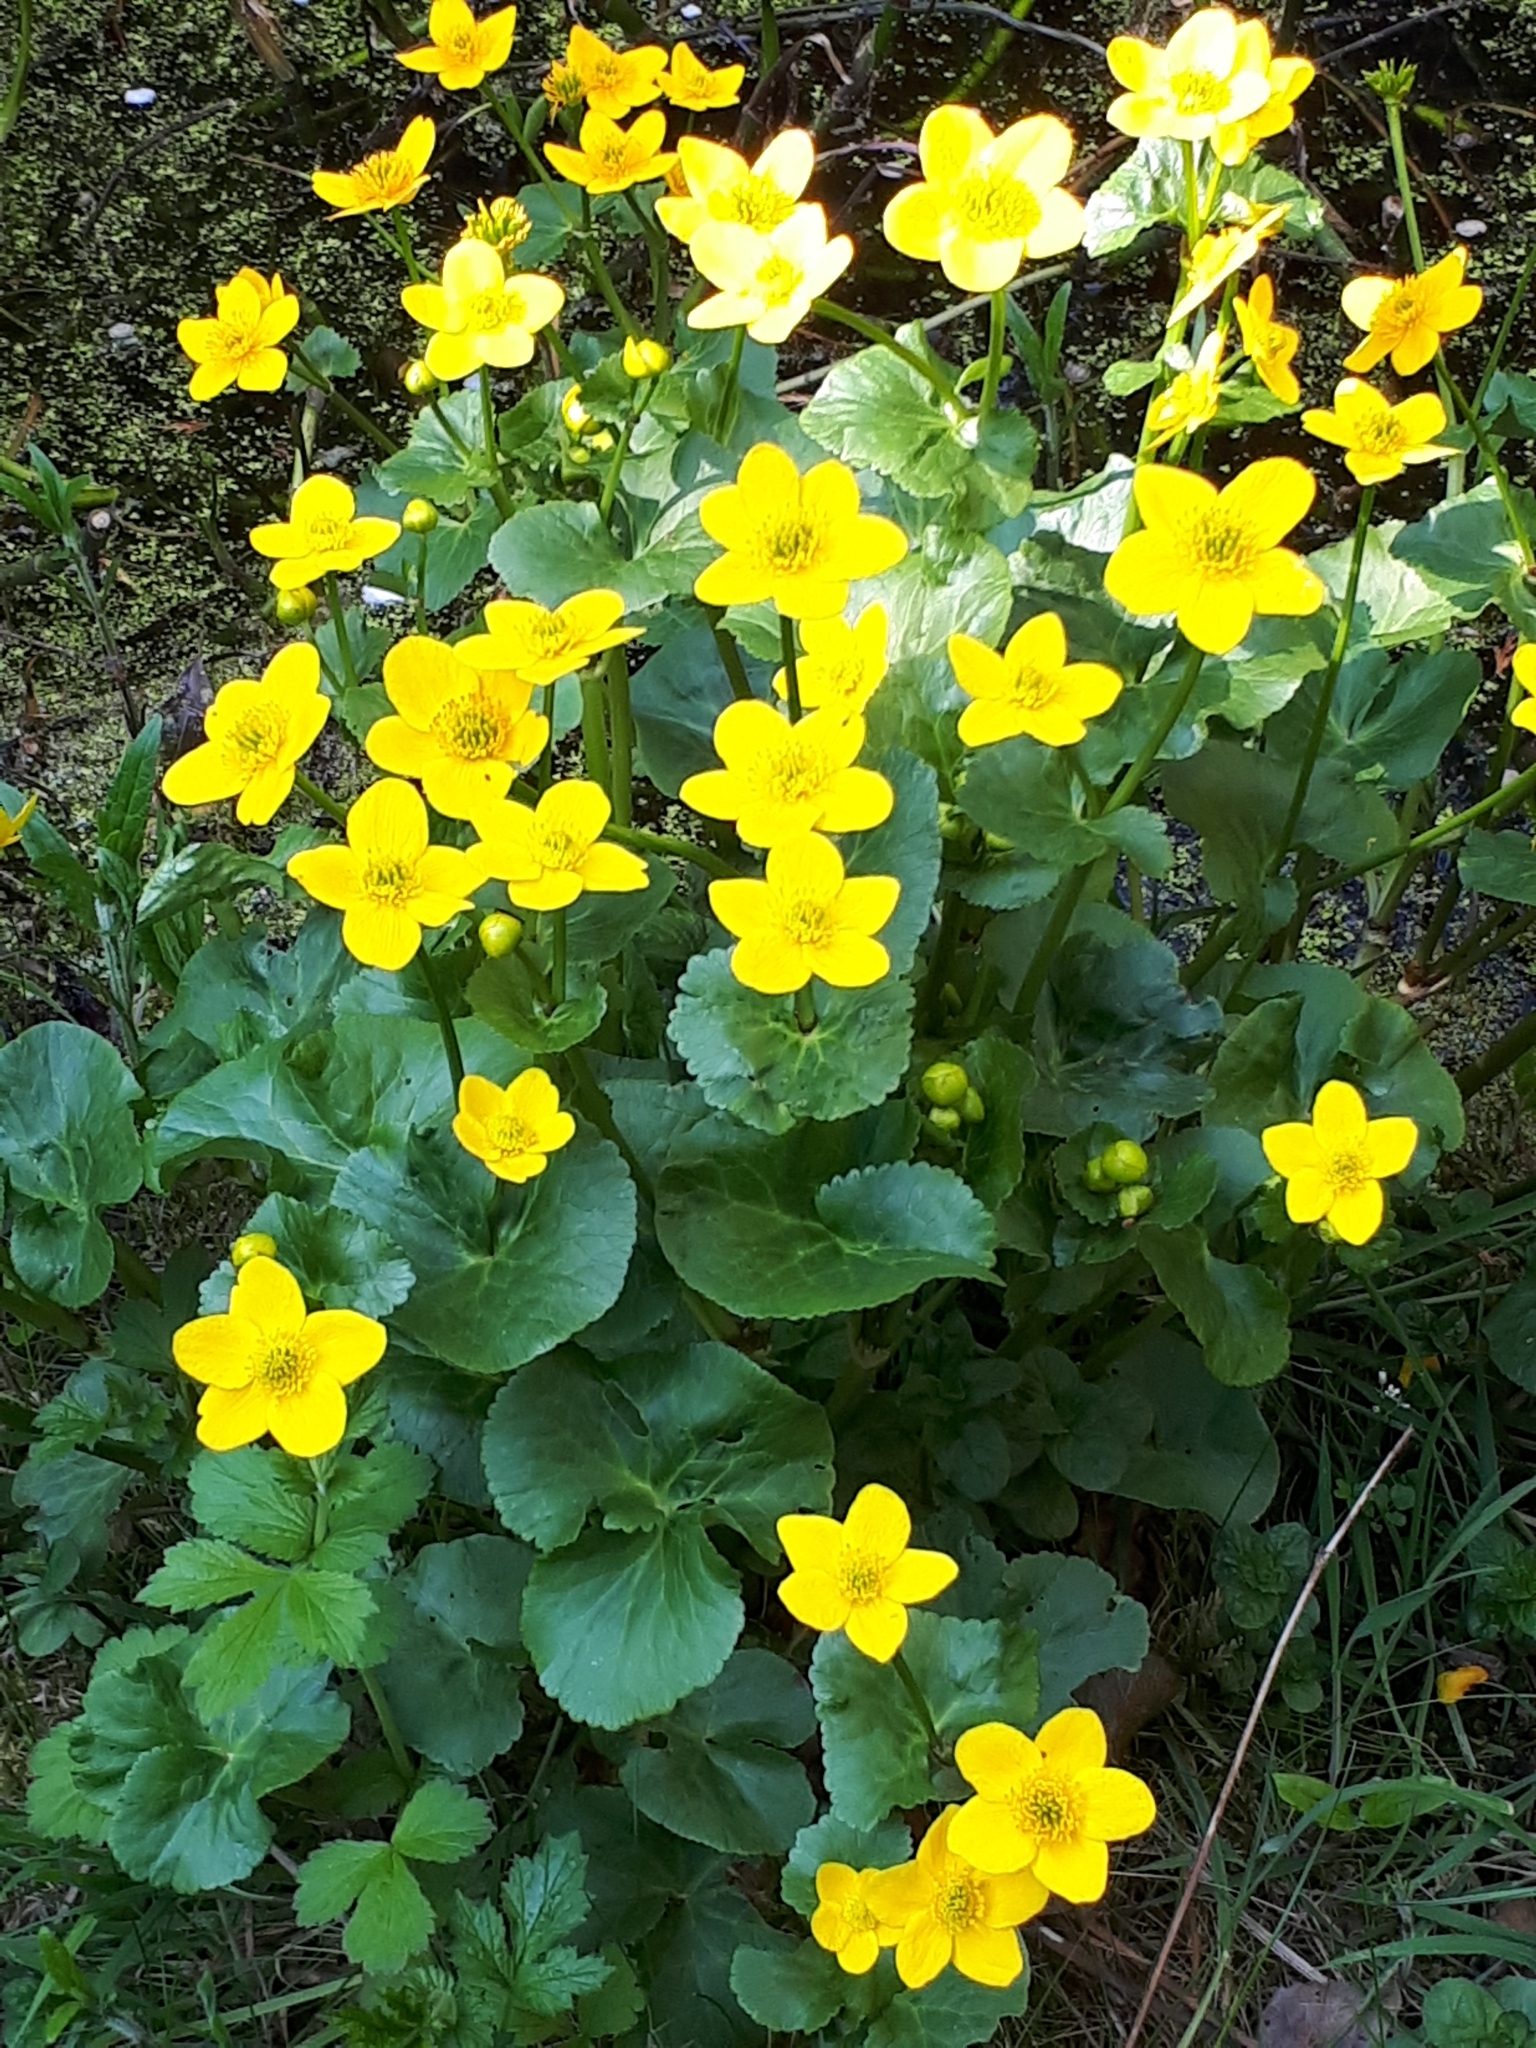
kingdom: Plantae
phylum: Tracheophyta
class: Magnoliopsida
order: Ranunculales
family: Ranunculaceae
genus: Caltha
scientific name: Caltha palustris
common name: Marsh marigold
